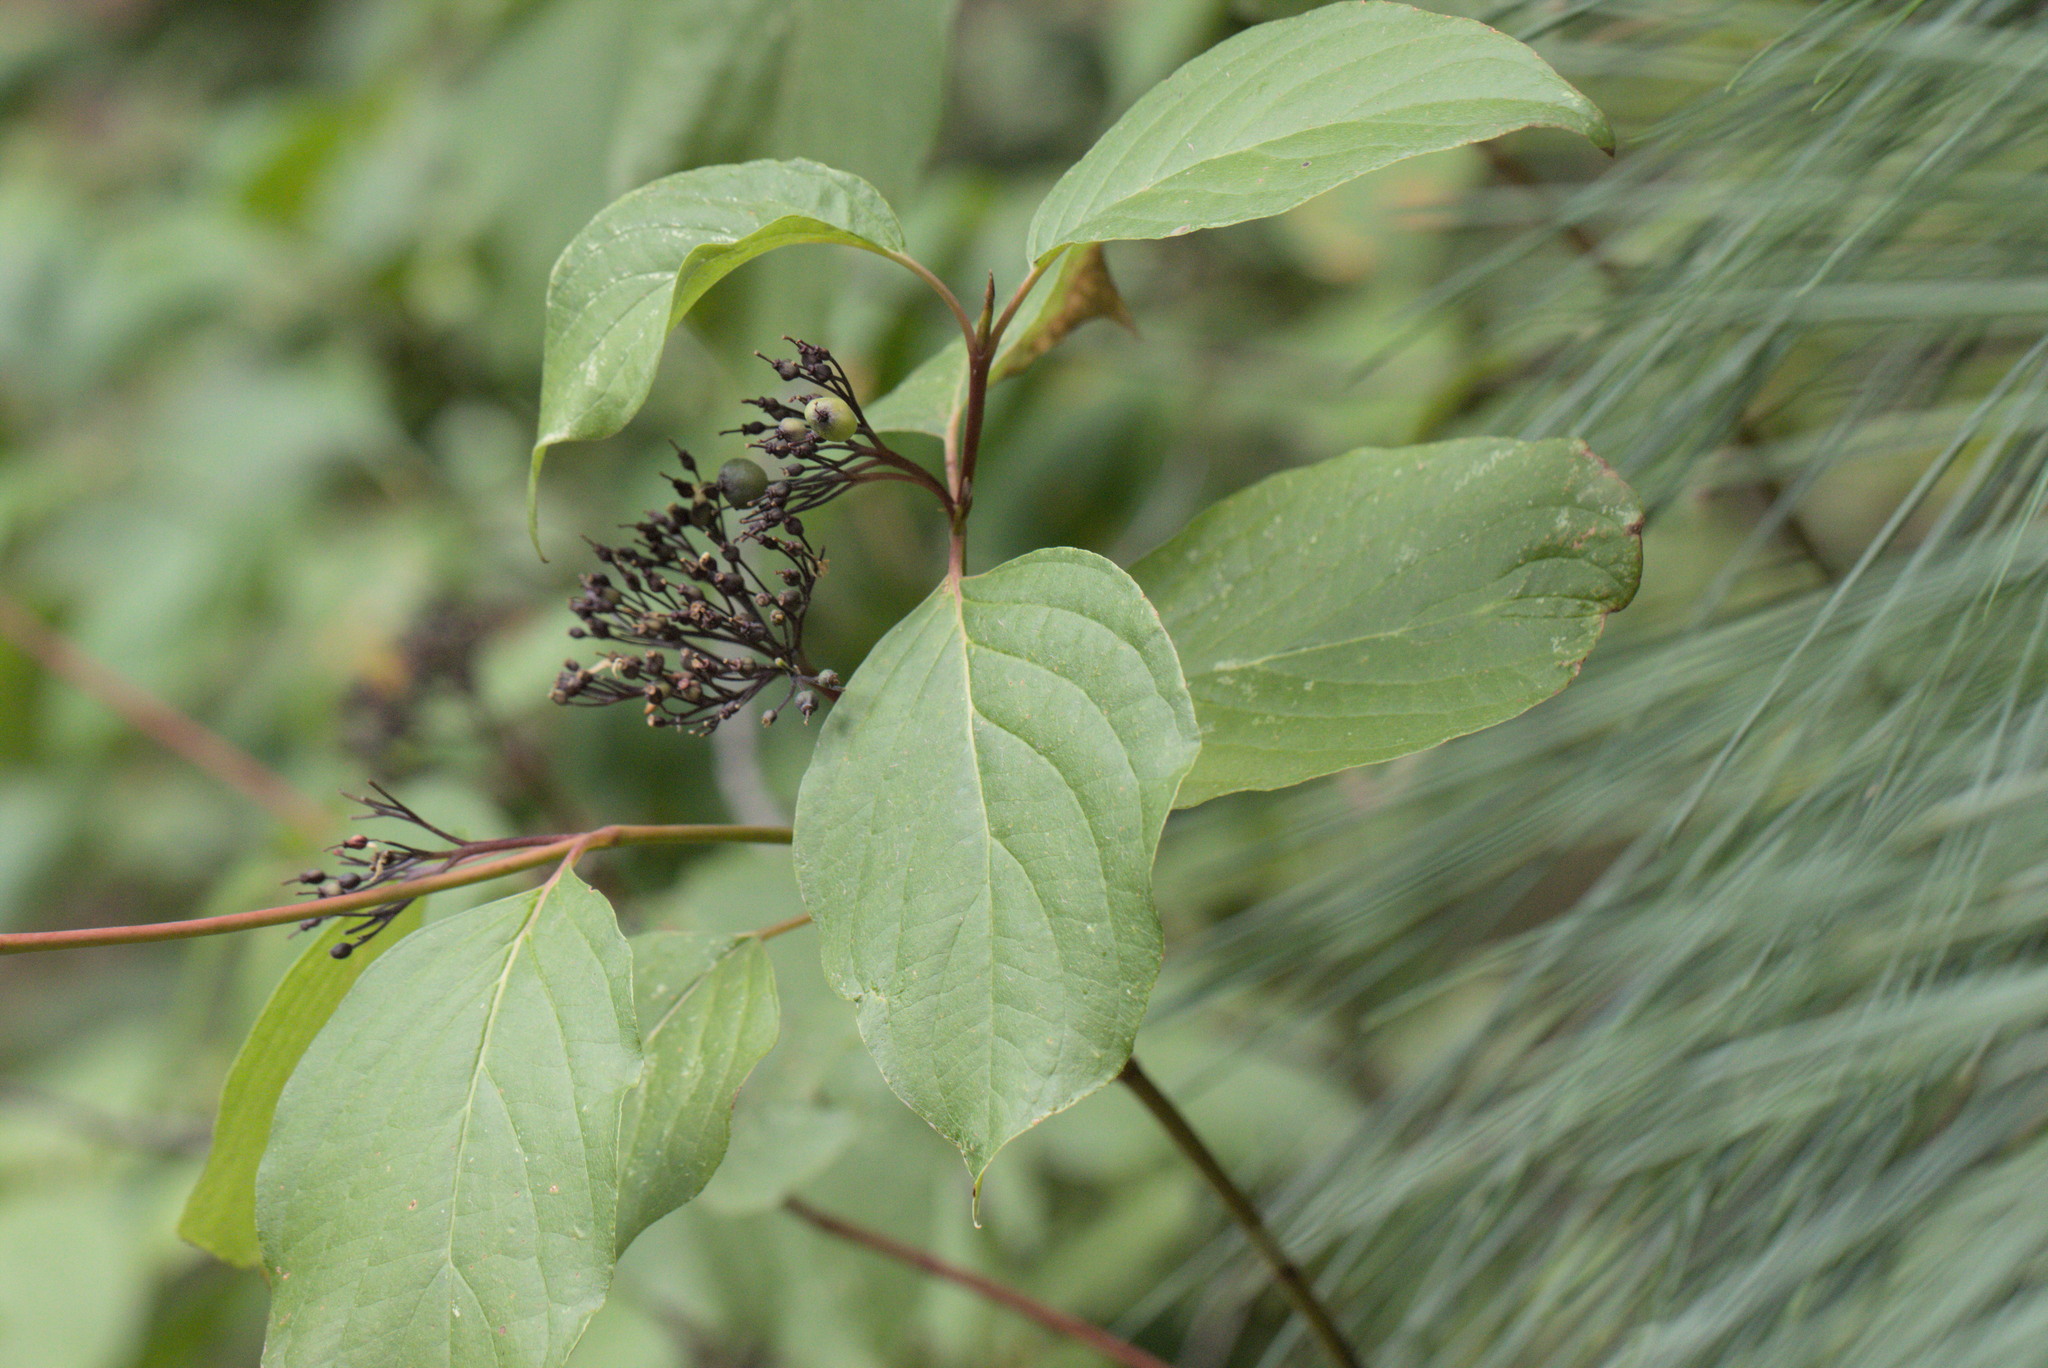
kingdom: Plantae
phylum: Tracheophyta
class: Magnoliopsida
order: Cornales
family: Cornaceae
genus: Cornus
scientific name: Cornus sericea
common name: Red-osier dogwood
